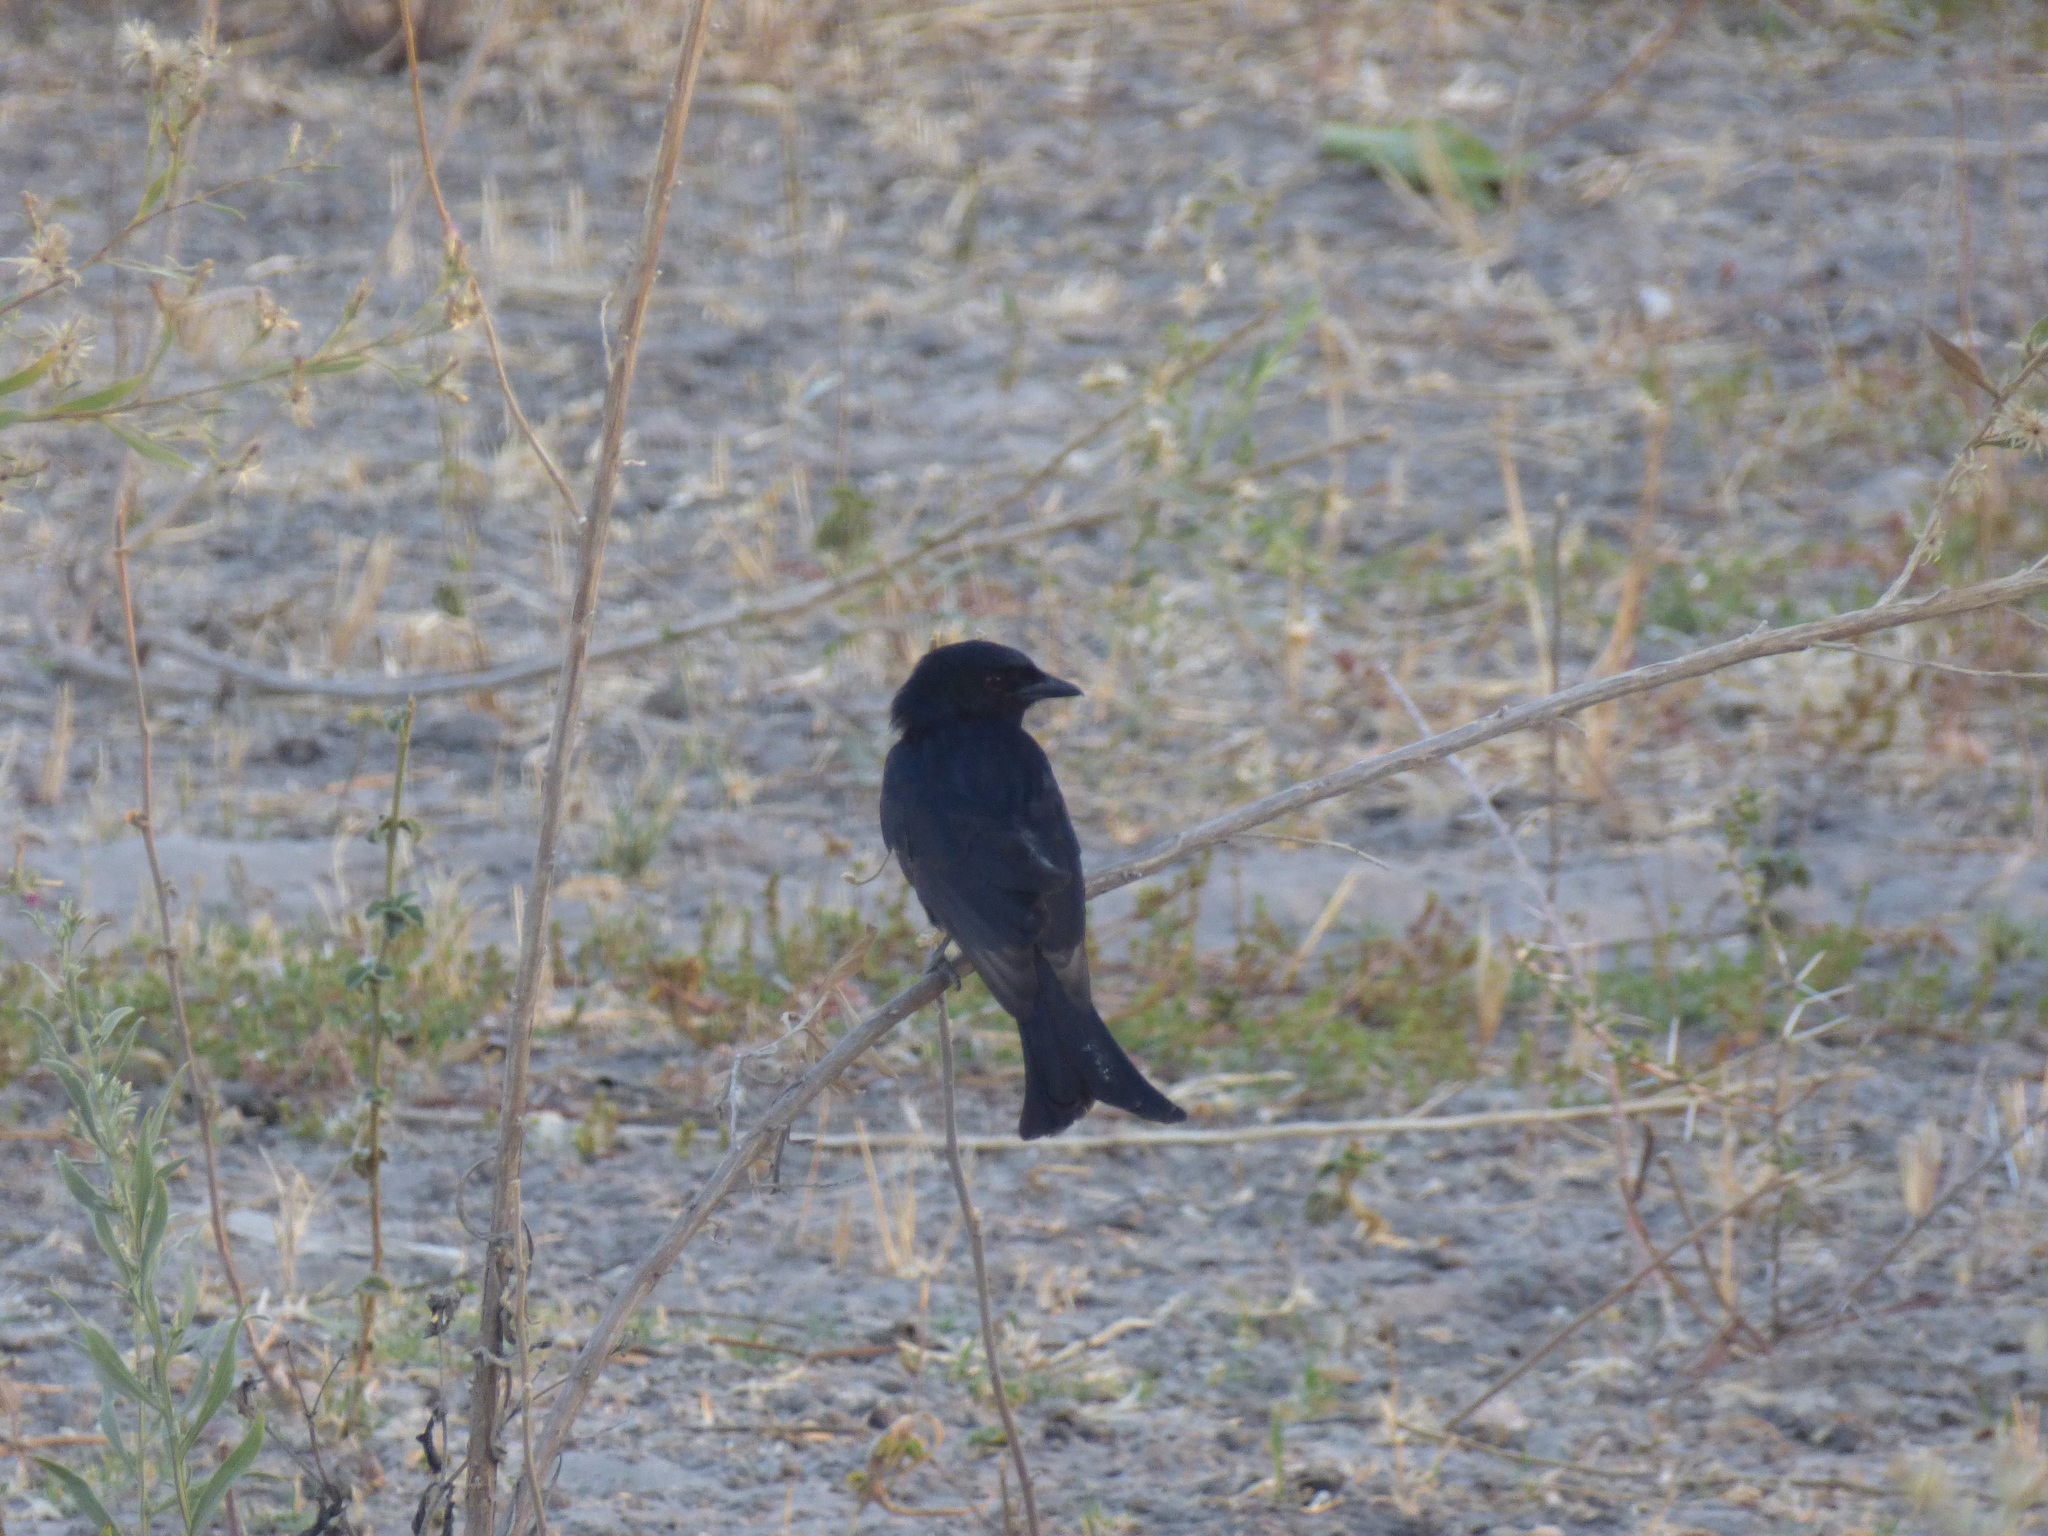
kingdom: Animalia
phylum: Chordata
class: Aves
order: Passeriformes
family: Dicruridae
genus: Dicrurus
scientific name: Dicrurus adsimilis
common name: Fork-tailed drongo
